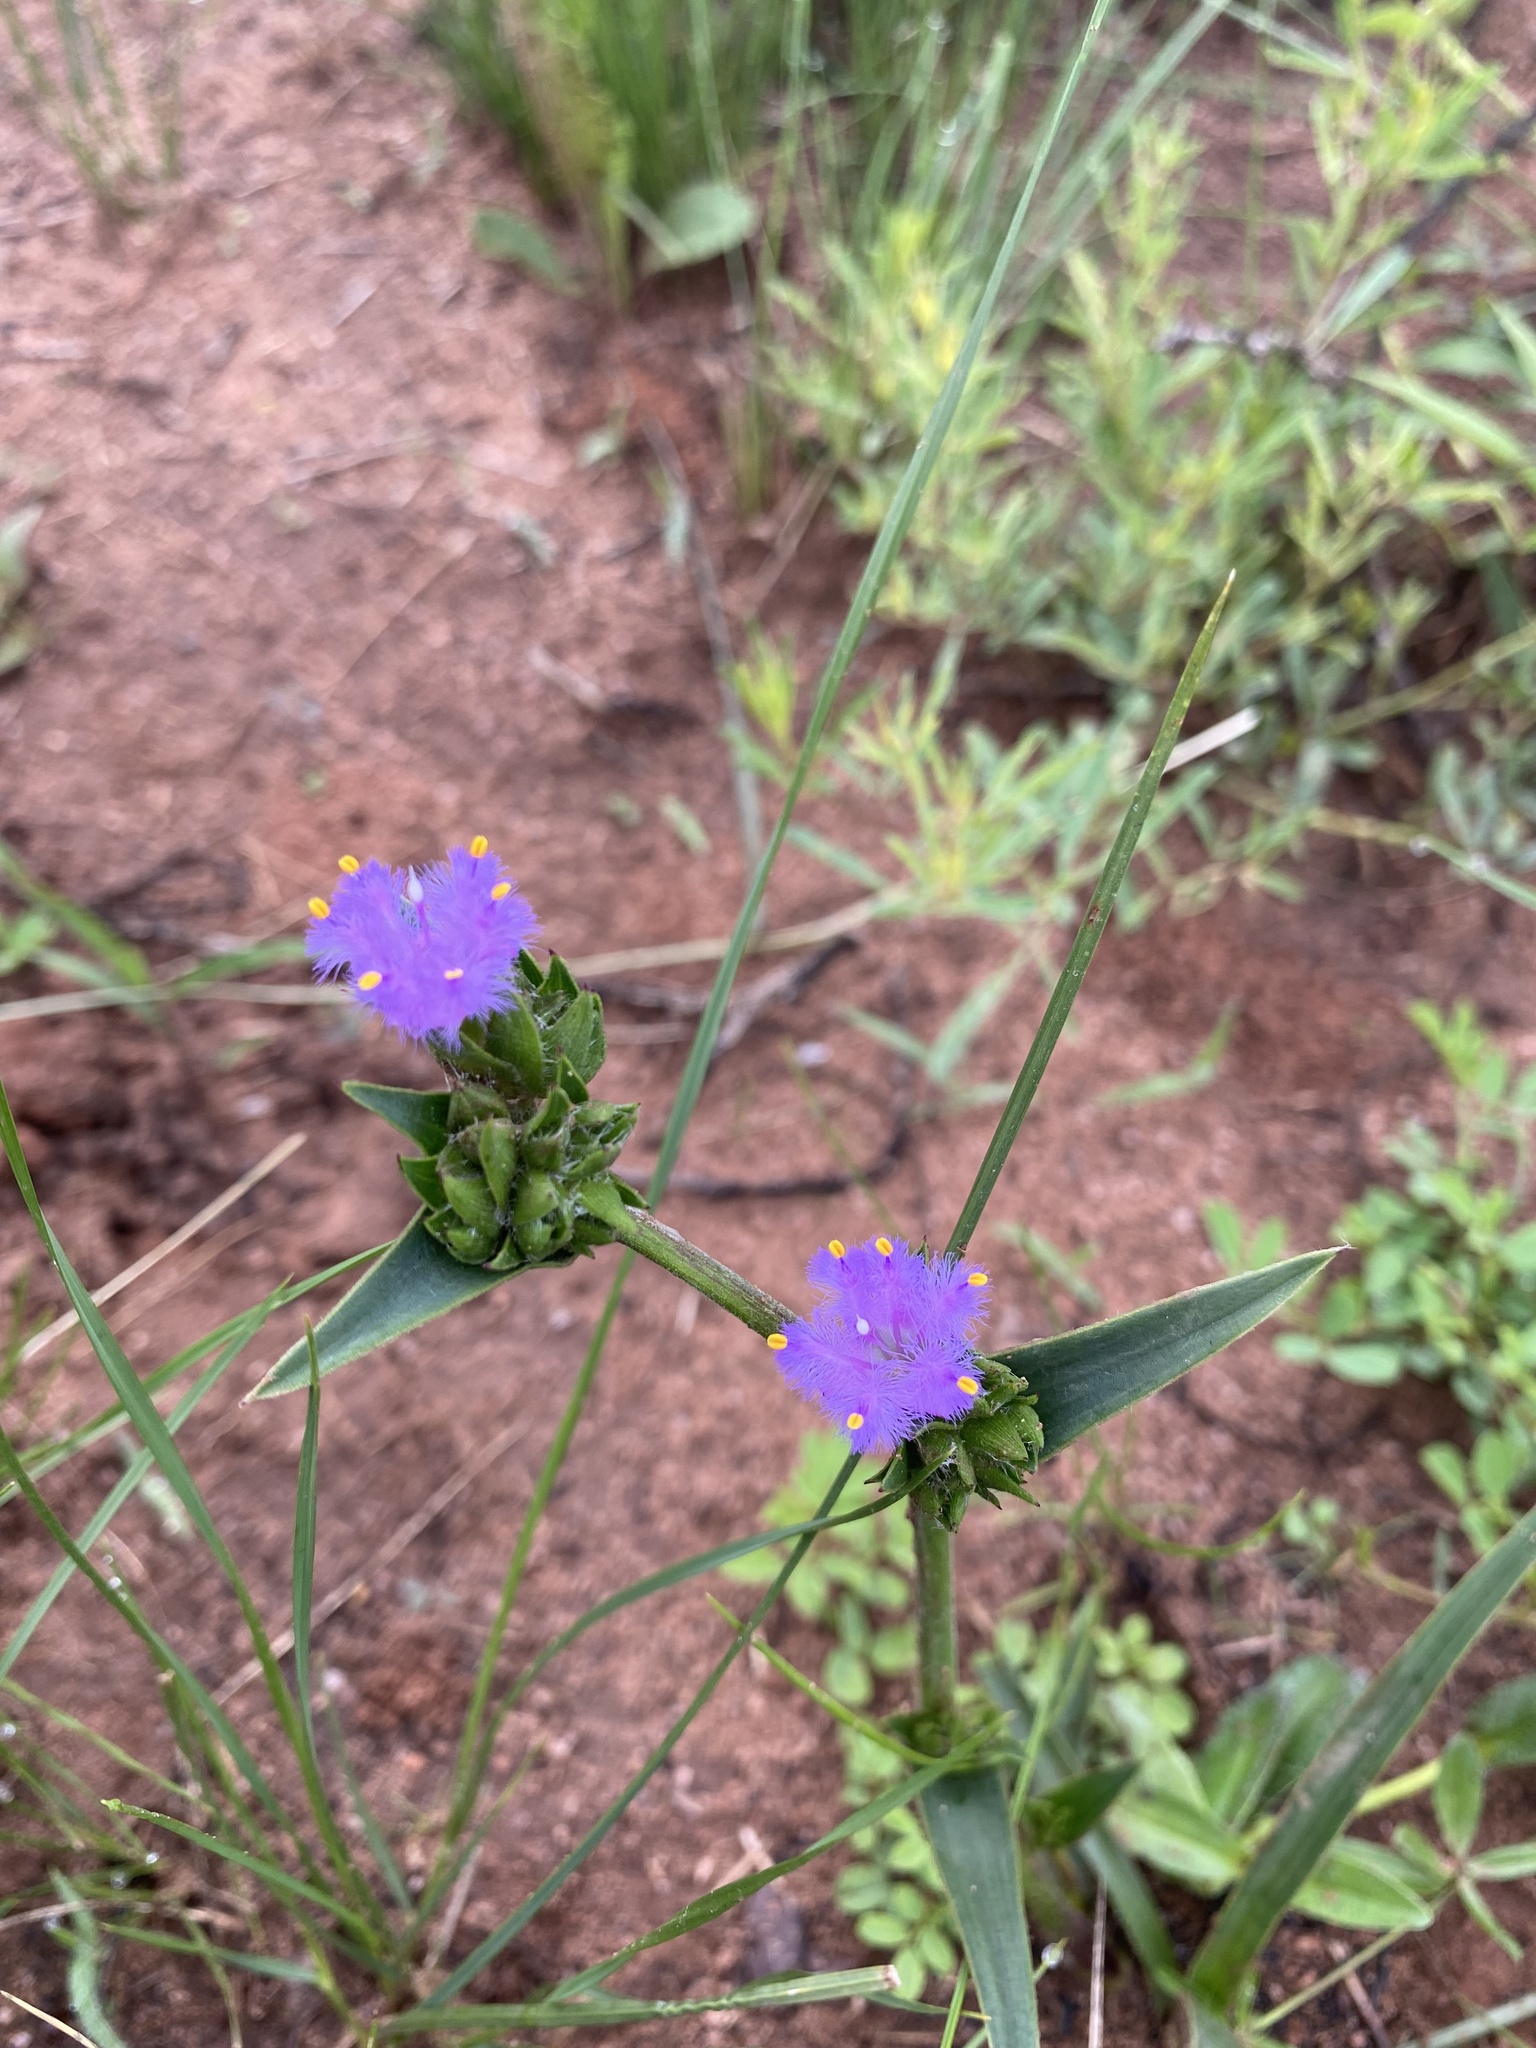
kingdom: Plantae
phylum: Tracheophyta
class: Liliopsida
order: Commelinales
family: Commelinaceae
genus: Cyanotis
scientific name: Cyanotis speciosa
